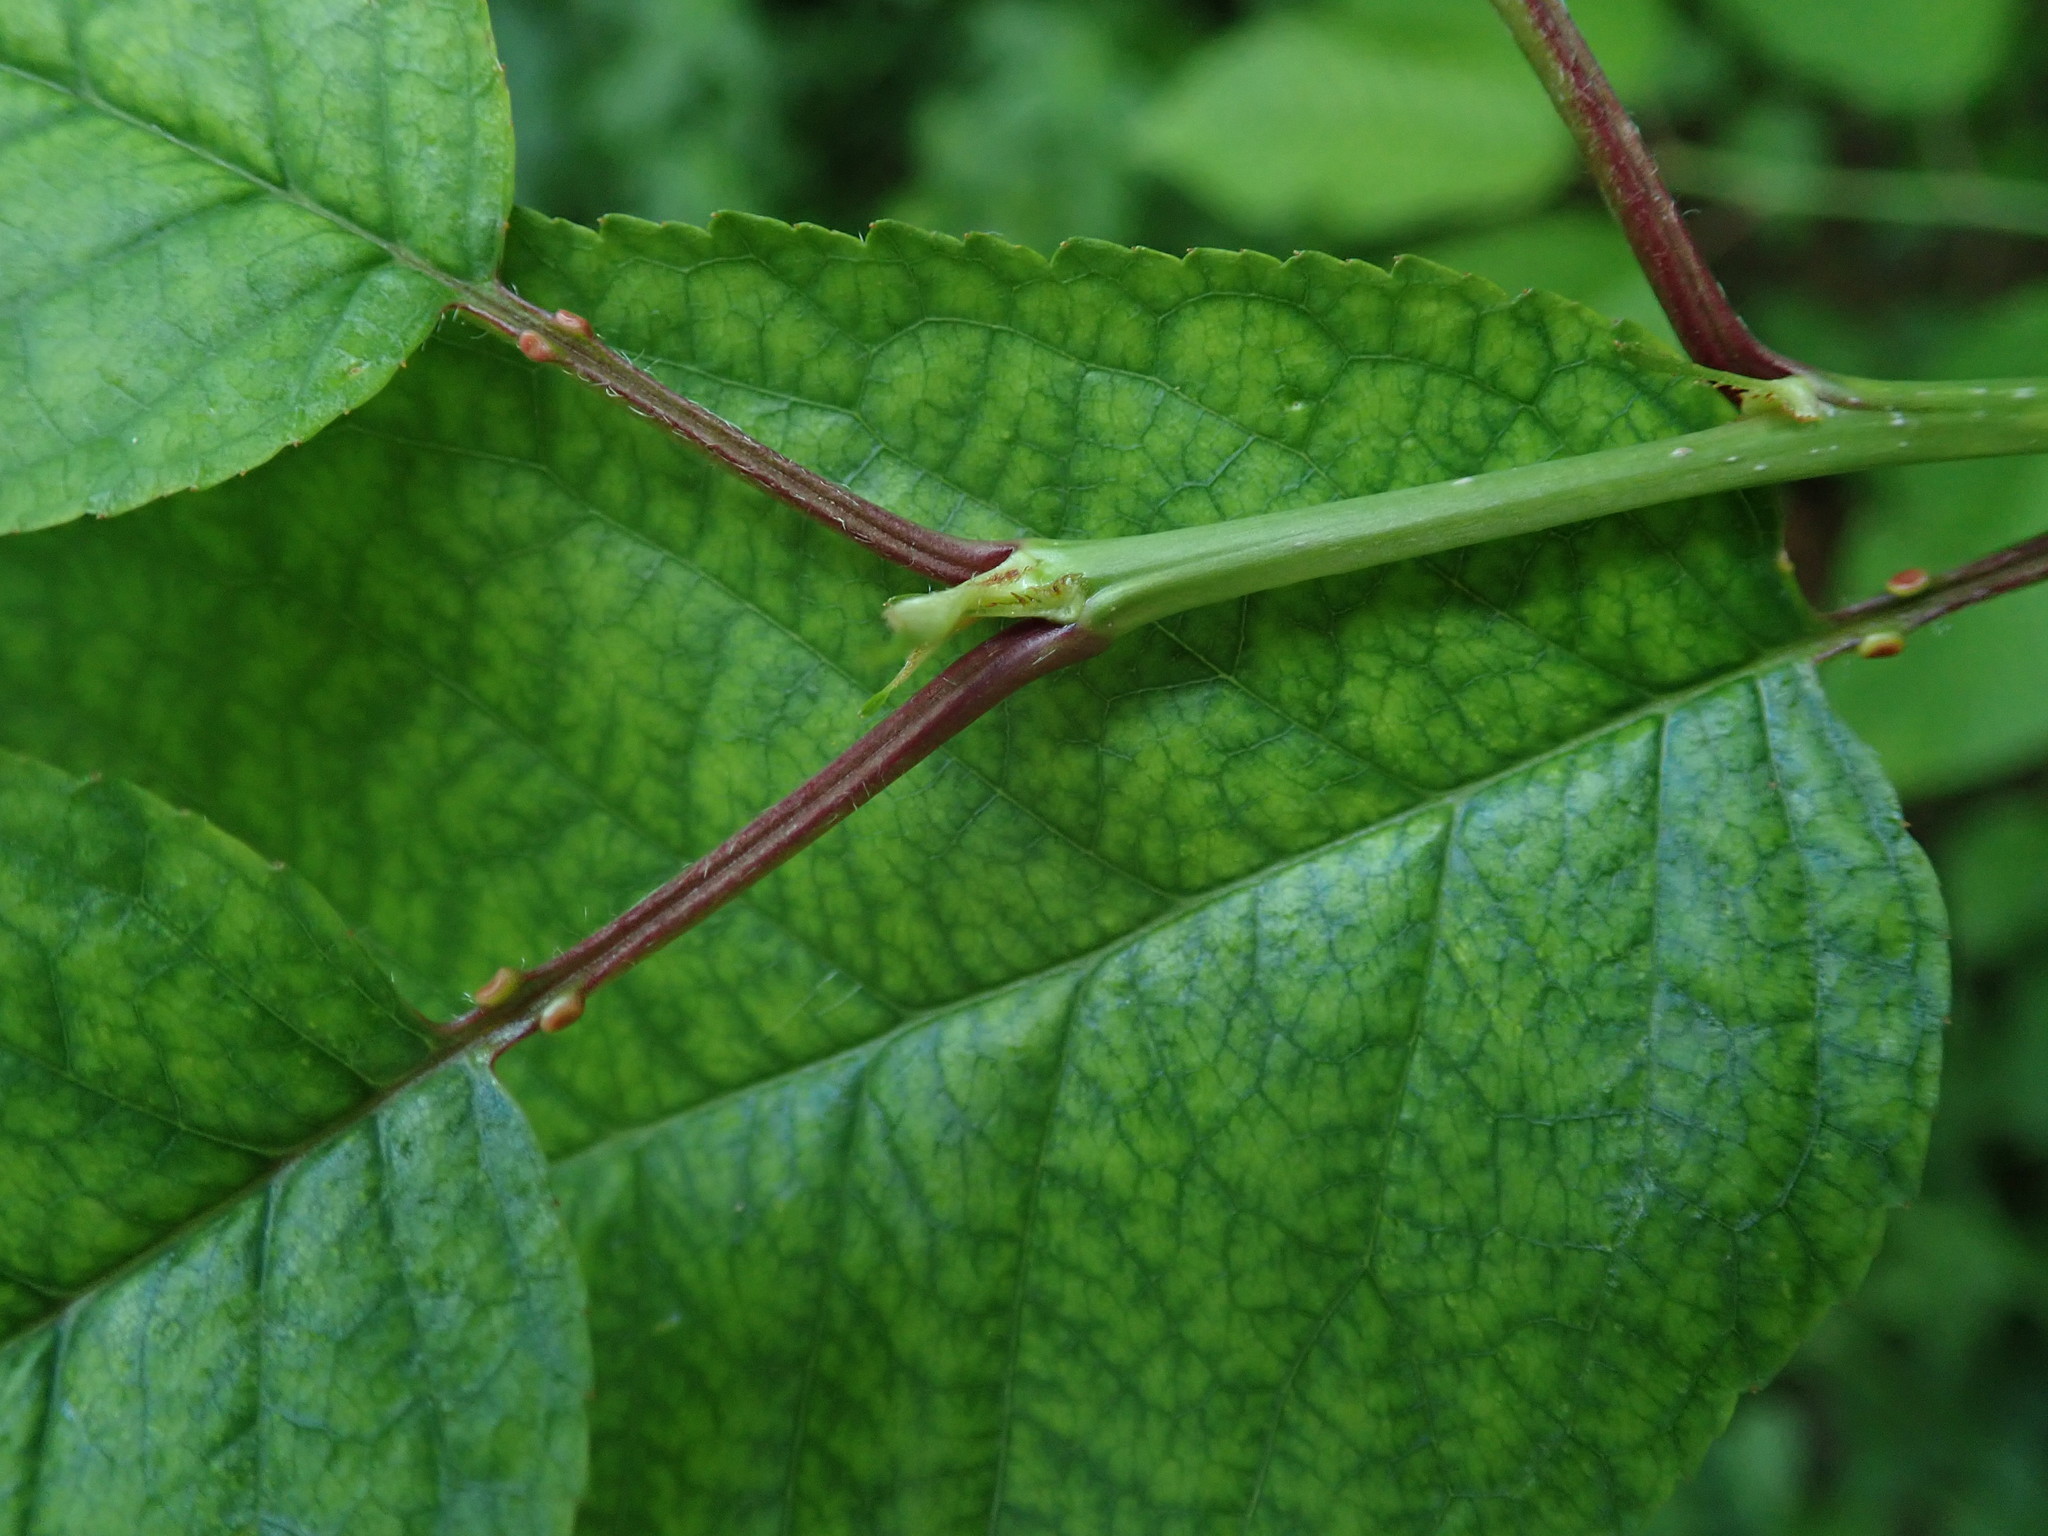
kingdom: Plantae
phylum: Tracheophyta
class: Magnoliopsida
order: Rosales
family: Rosaceae
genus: Prunus
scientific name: Prunus padus
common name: Bird cherry
